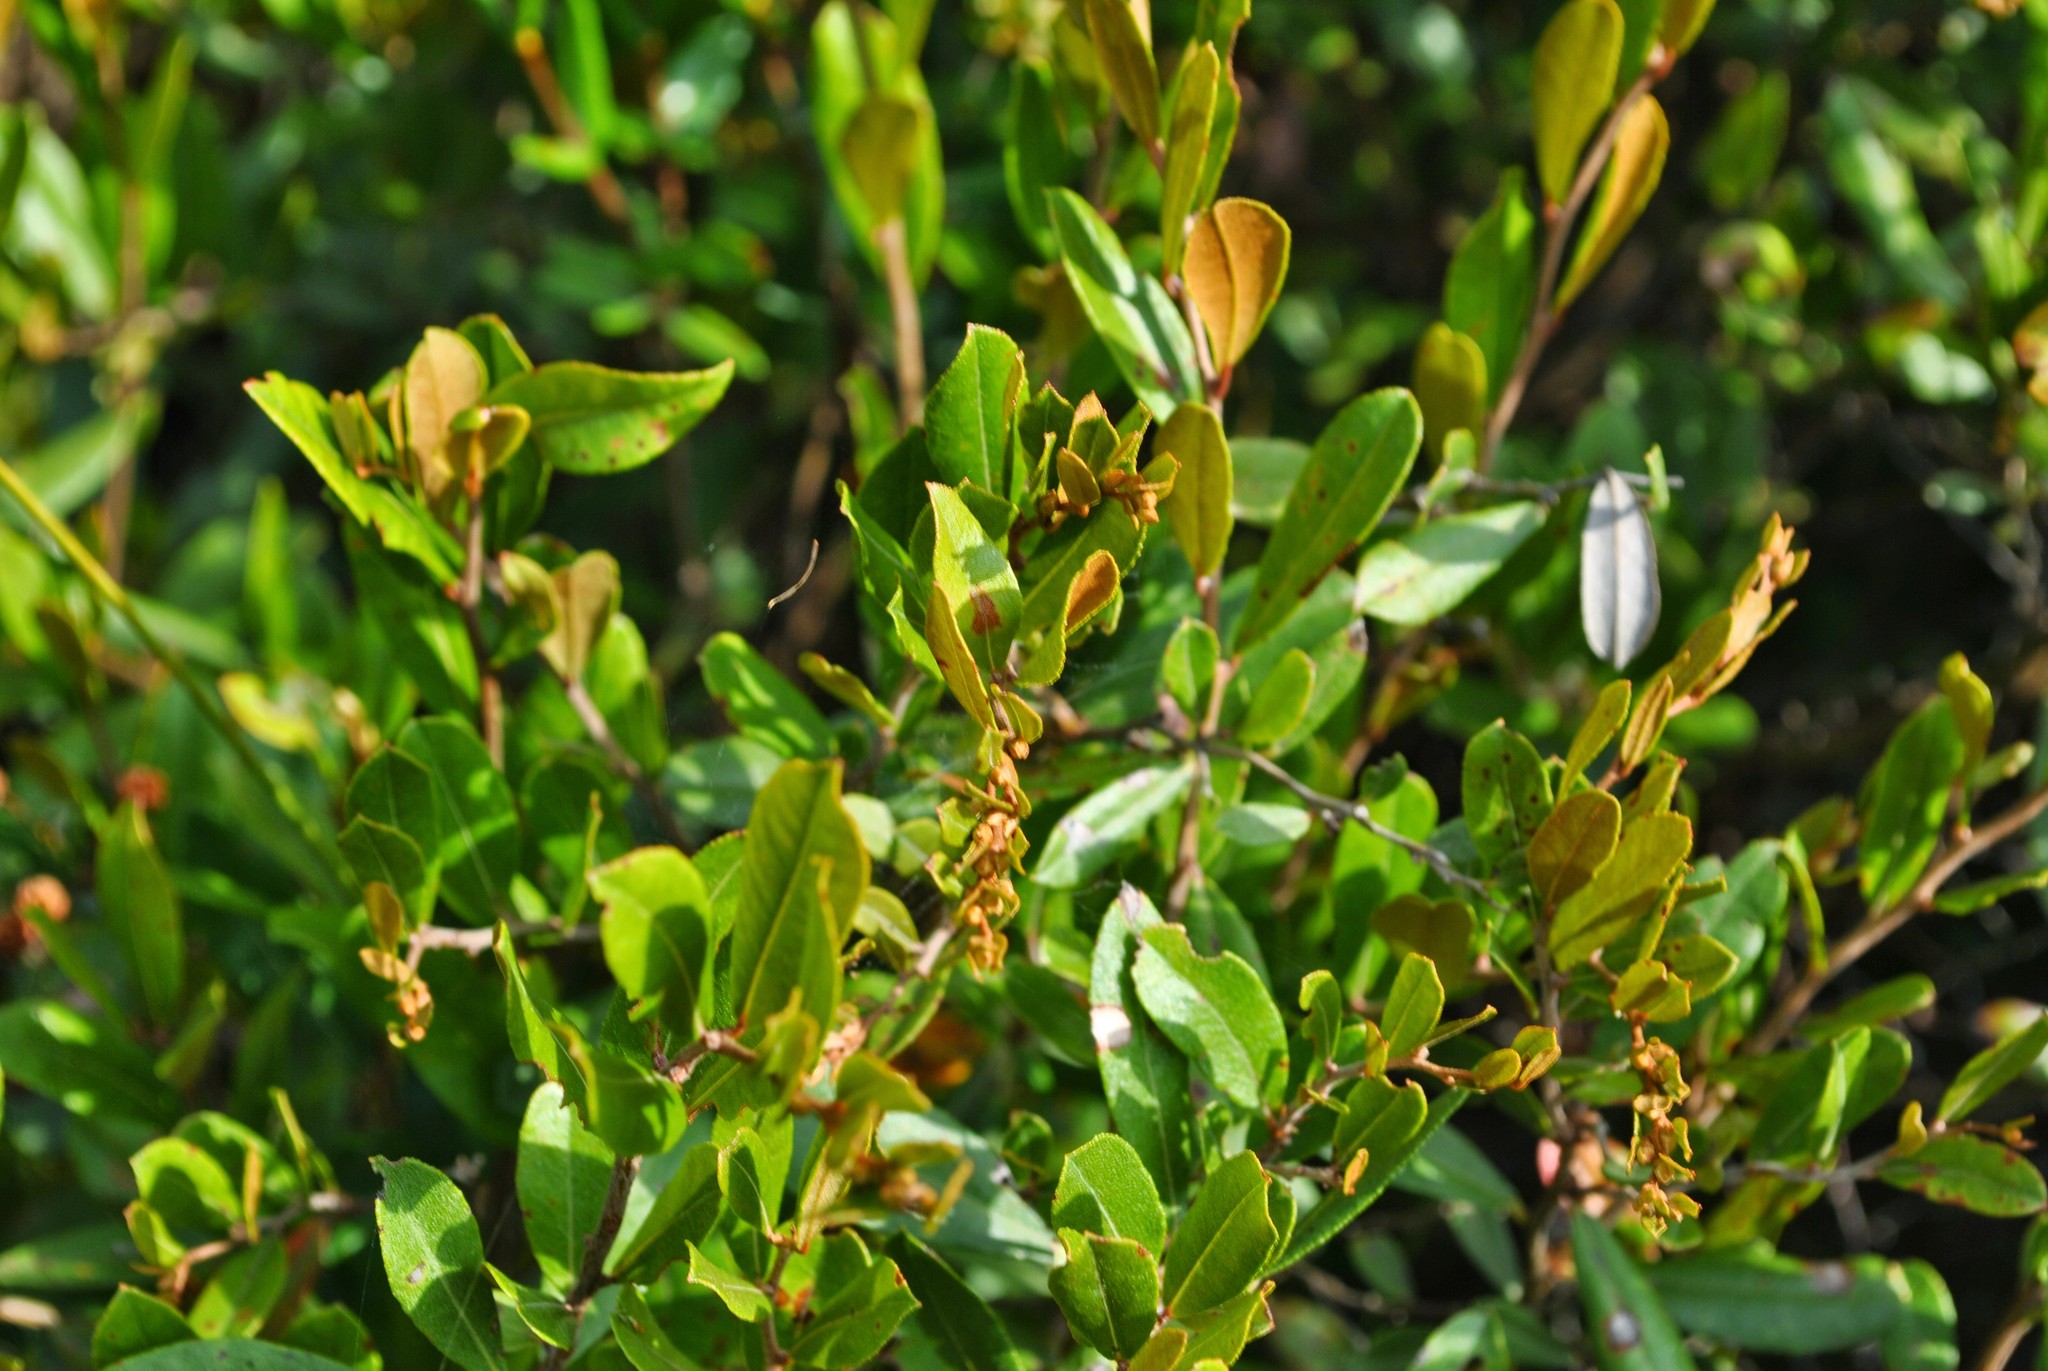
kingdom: Plantae
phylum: Tracheophyta
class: Magnoliopsida
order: Ericales
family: Ericaceae
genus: Chamaedaphne
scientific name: Chamaedaphne calyculata
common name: Leatherleaf
